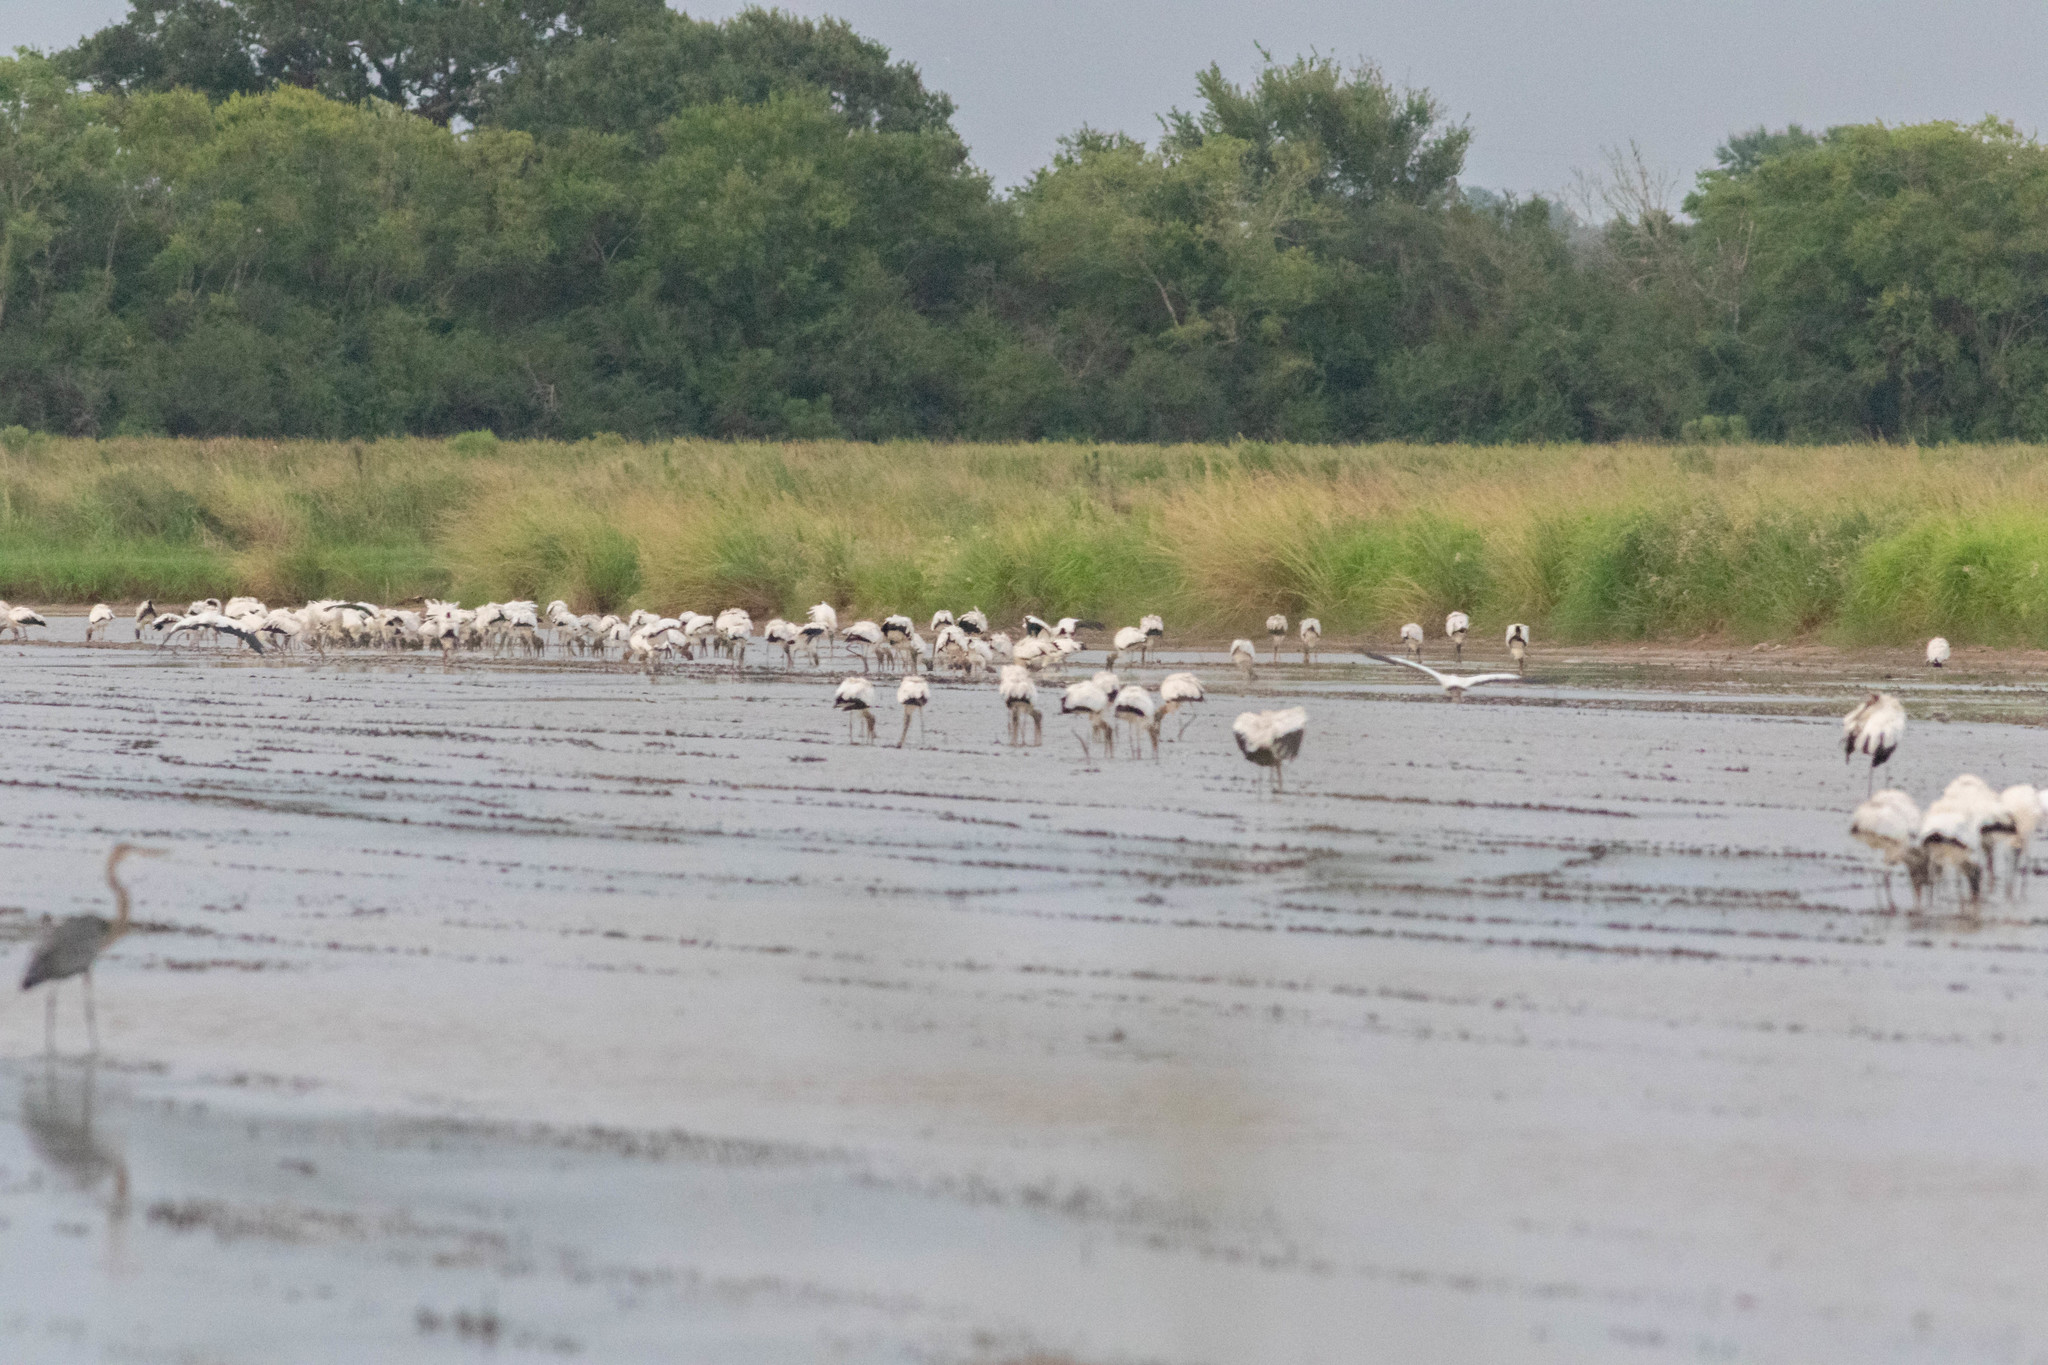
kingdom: Animalia
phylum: Chordata
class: Aves
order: Ciconiiformes
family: Ciconiidae
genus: Mycteria
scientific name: Mycteria americana
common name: Wood stork
